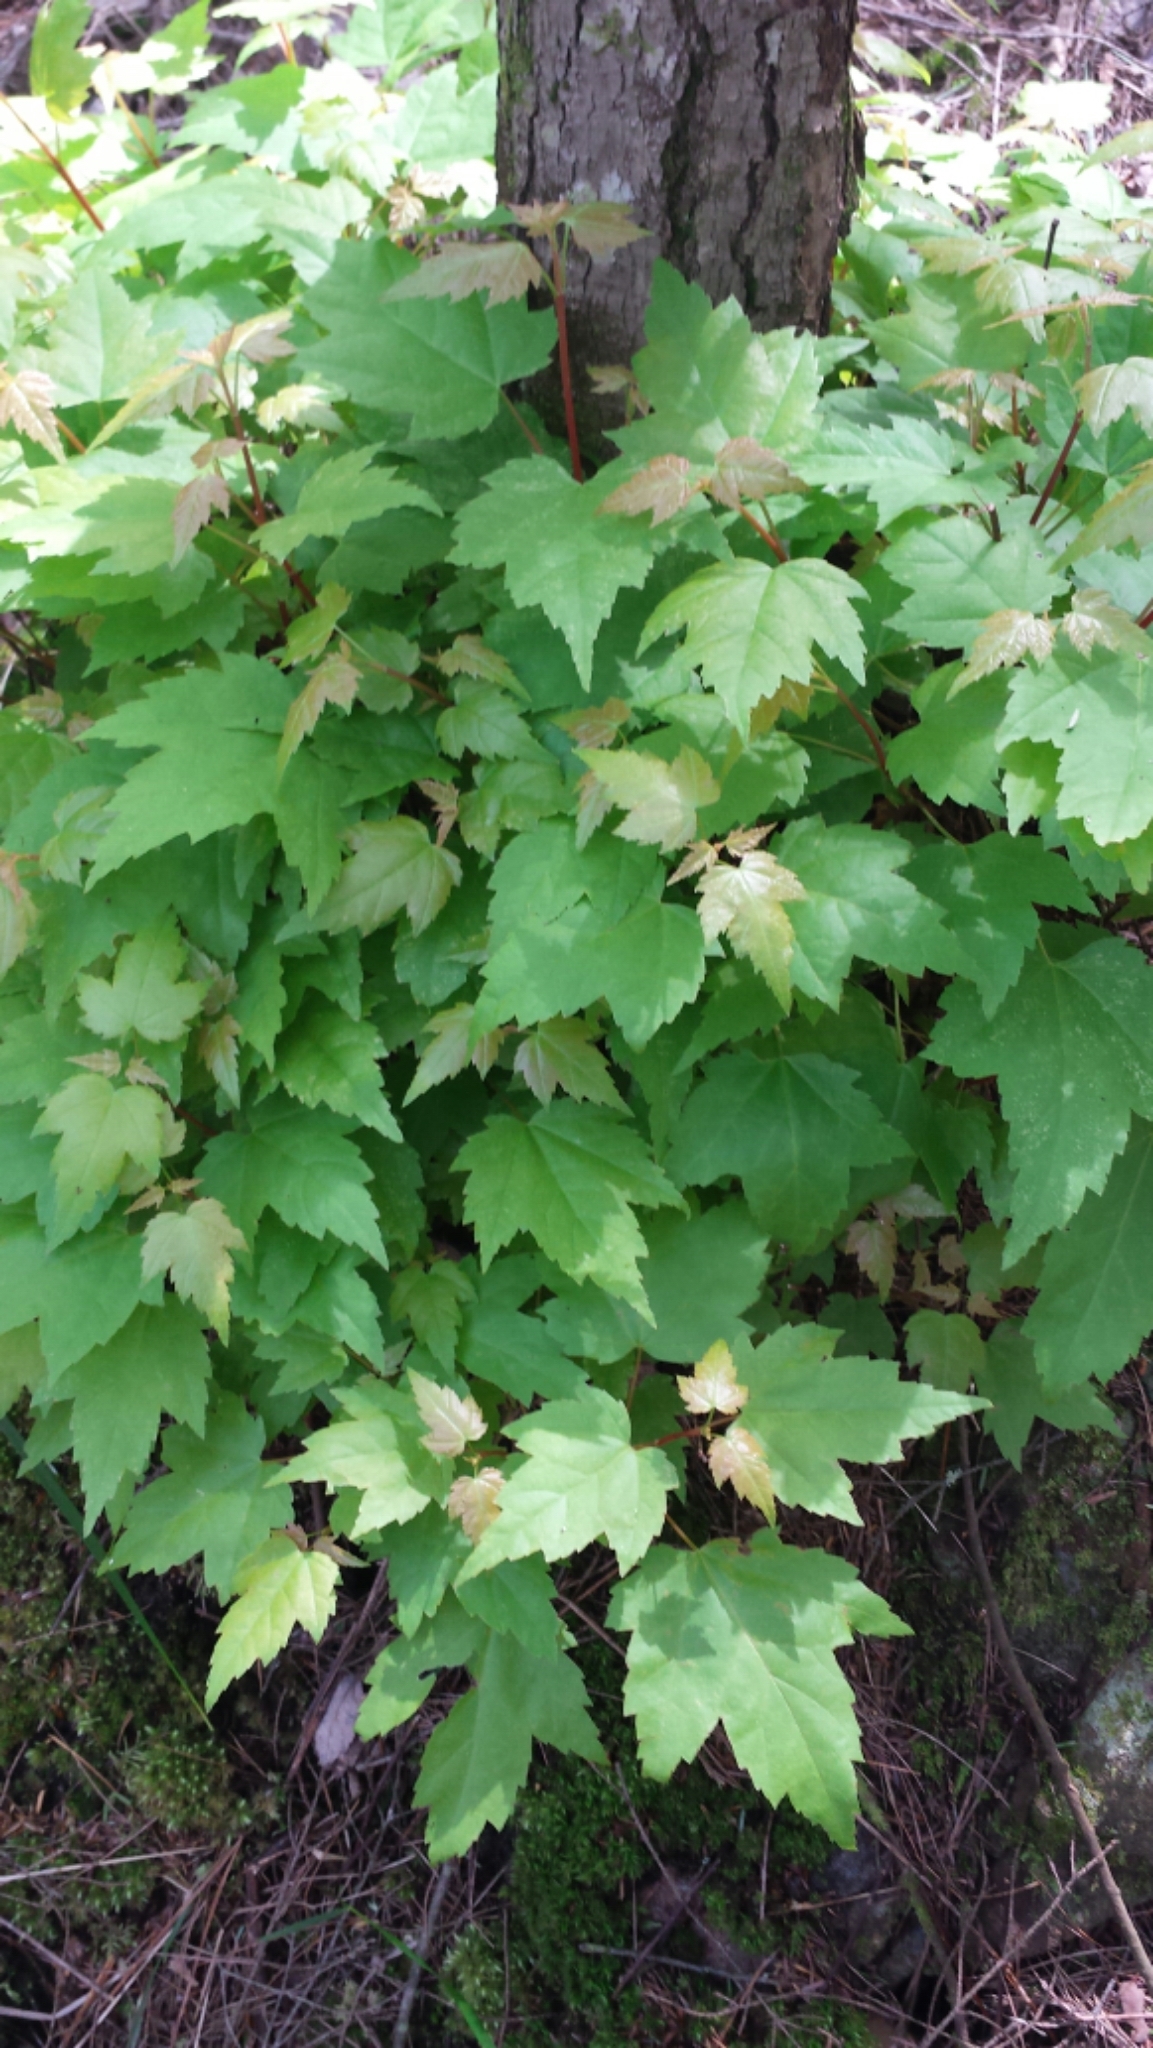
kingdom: Plantae
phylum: Tracheophyta
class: Magnoliopsida
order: Sapindales
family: Sapindaceae
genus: Acer
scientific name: Acer rubrum
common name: Red maple
